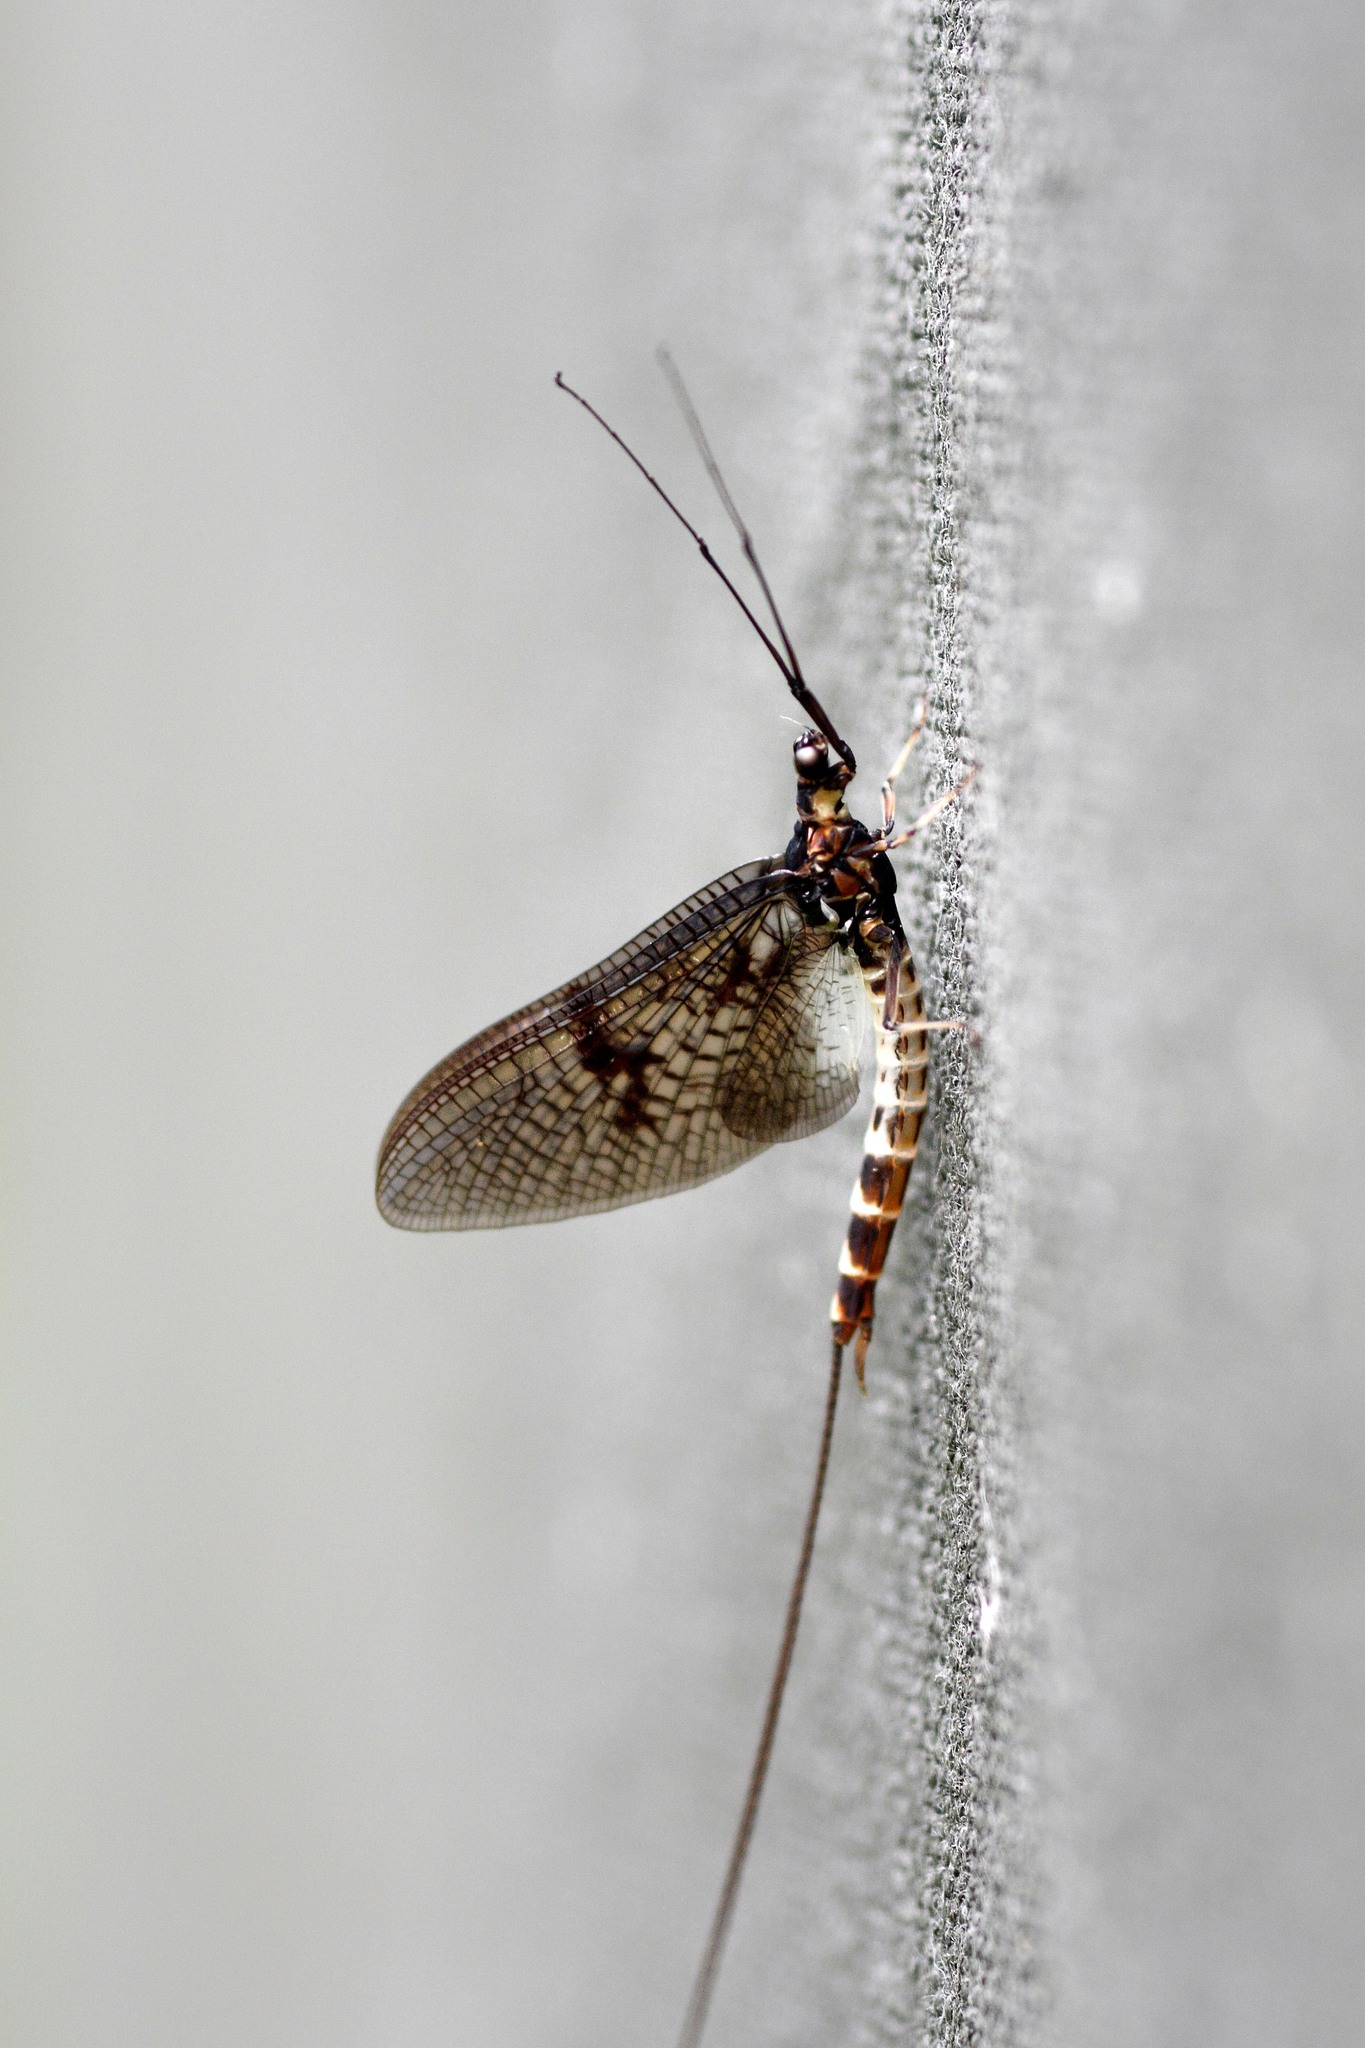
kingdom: Animalia
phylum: Arthropoda
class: Insecta
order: Ephemeroptera
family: Ephemeridae
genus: Ephemera
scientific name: Ephemera danica
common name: Green dun
